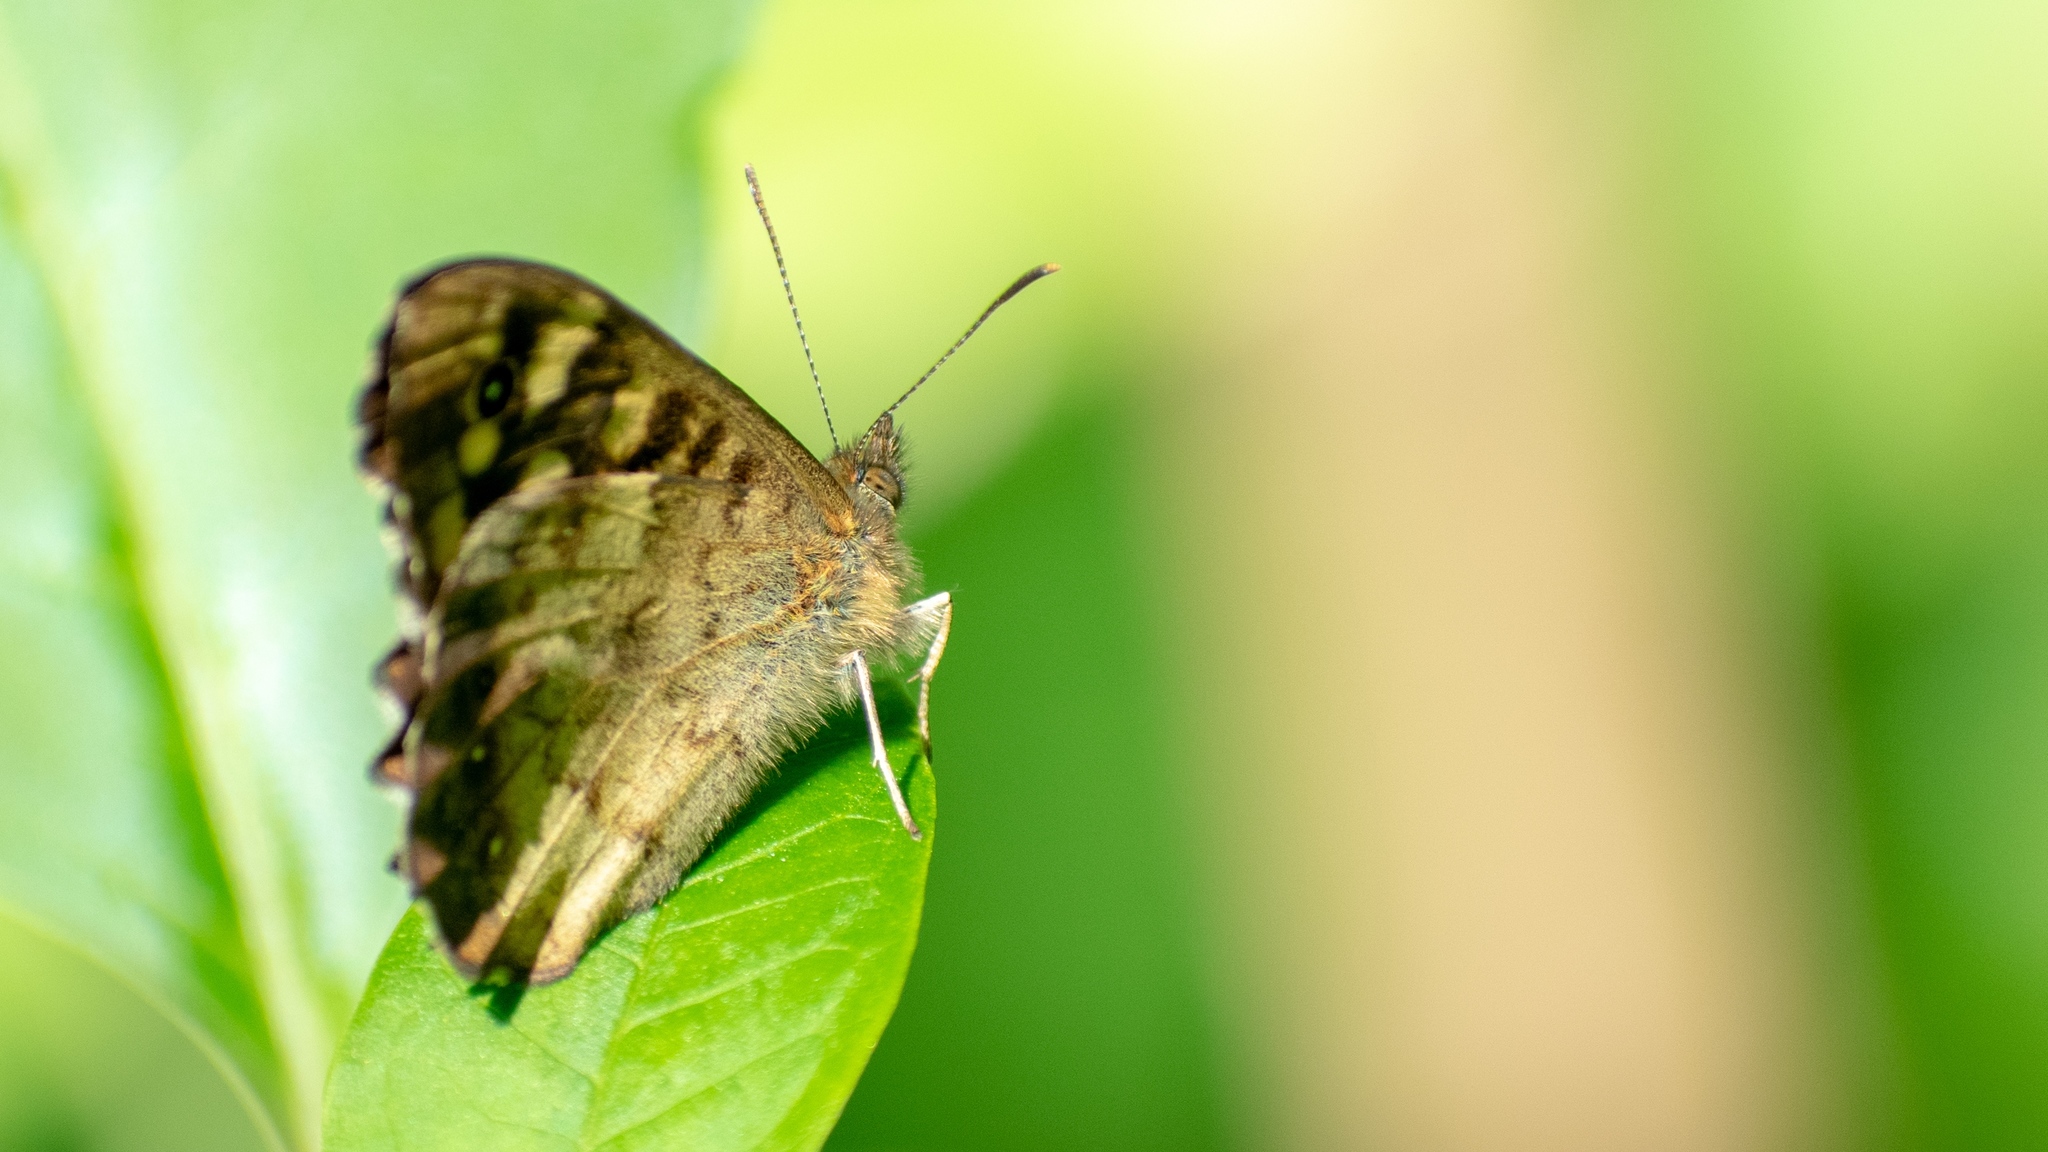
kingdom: Animalia
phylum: Arthropoda
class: Insecta
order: Lepidoptera
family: Nymphalidae
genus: Pararge
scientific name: Pararge aegeria
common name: Speckled wood
